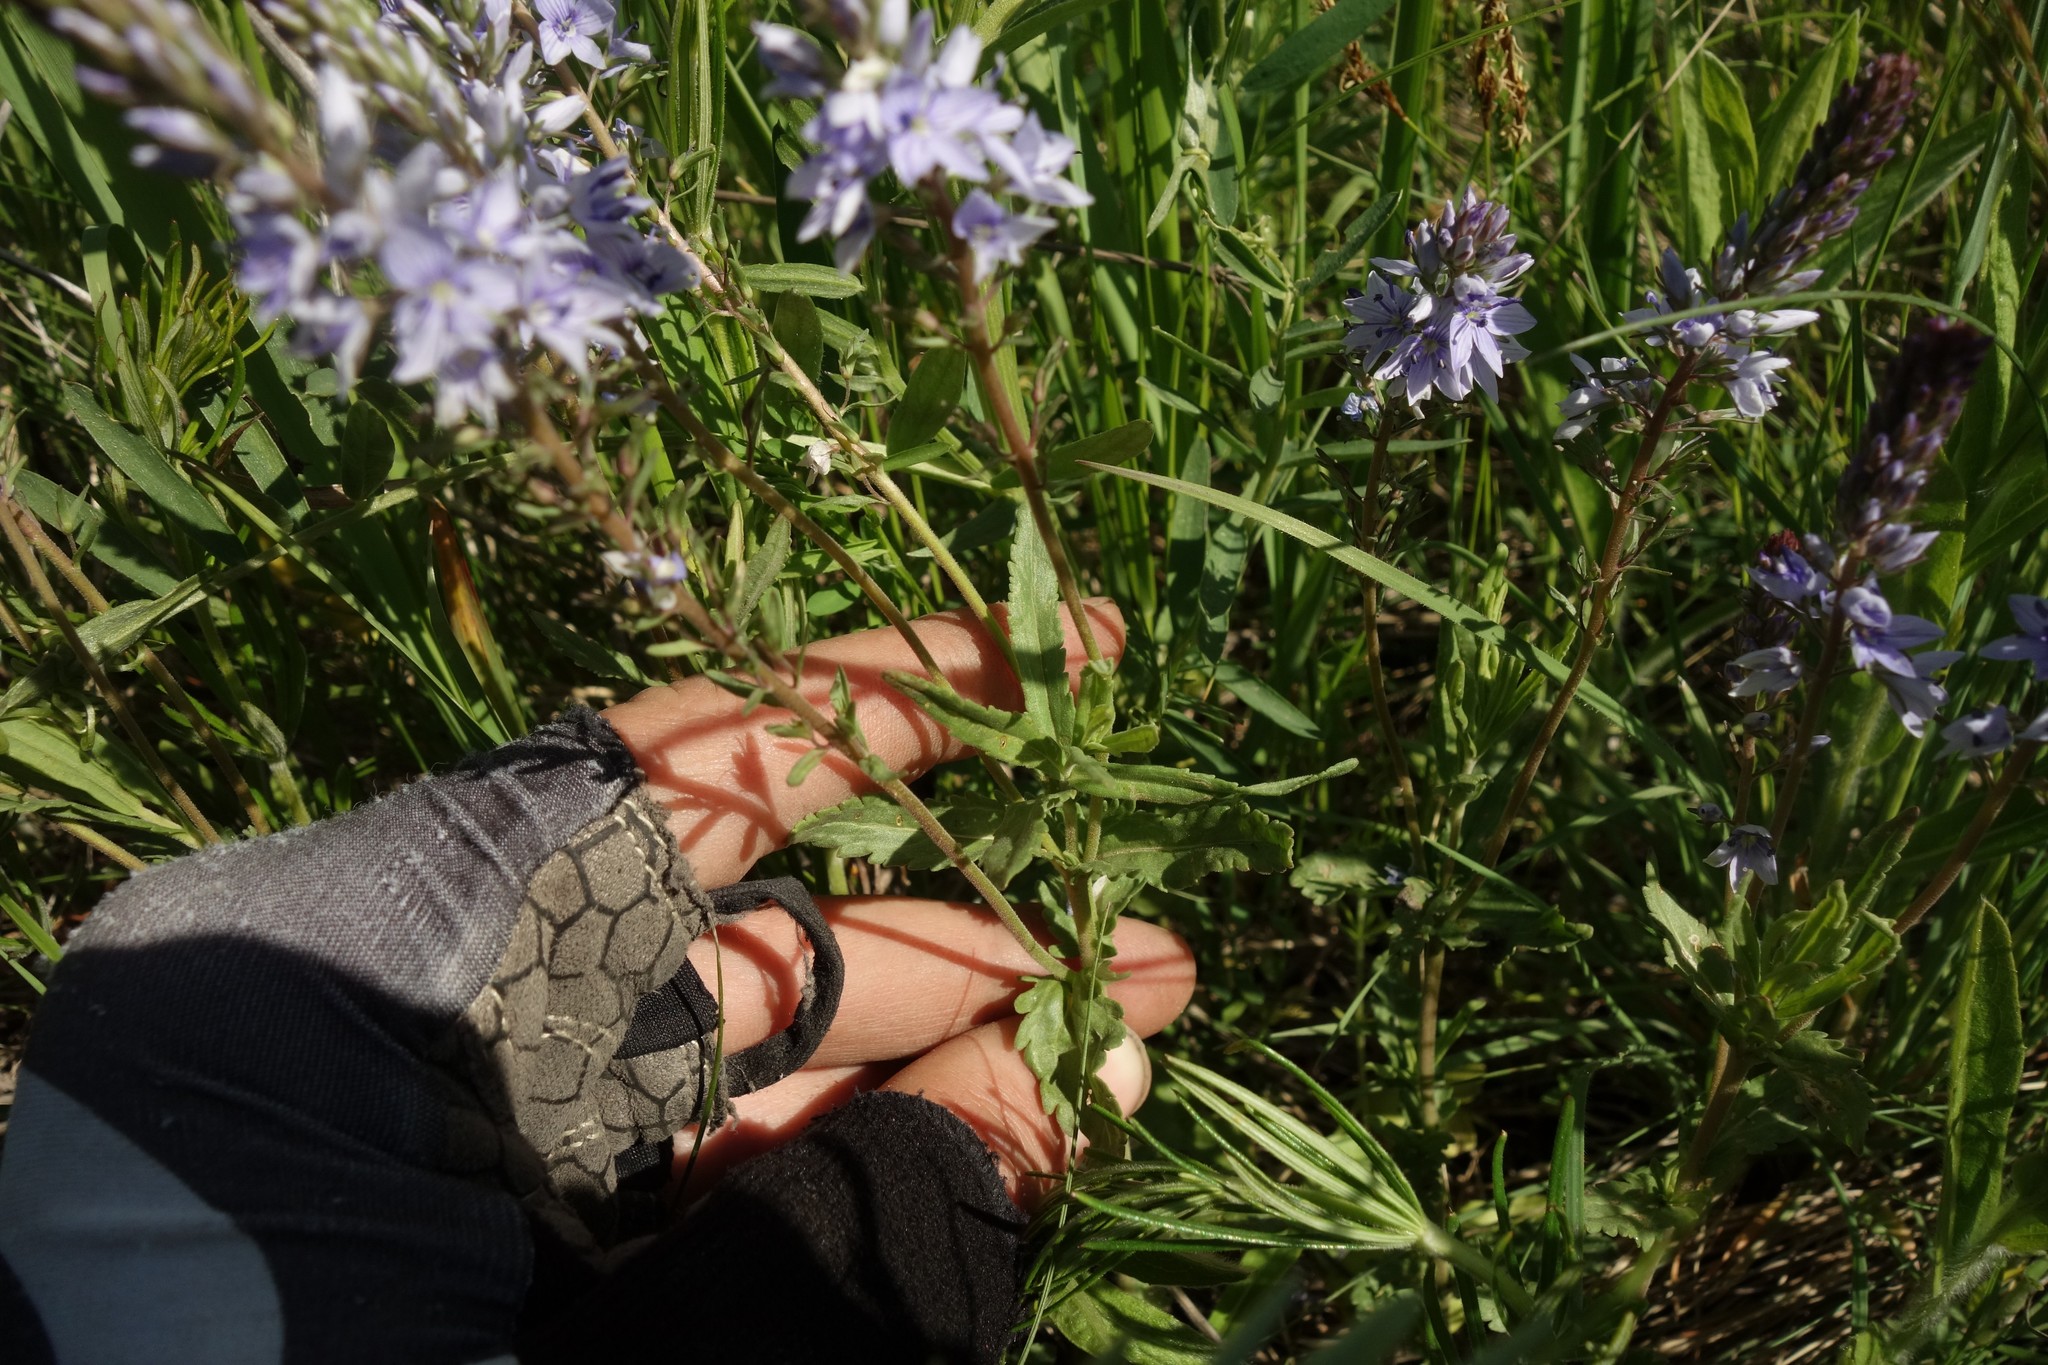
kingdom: Plantae
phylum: Tracheophyta
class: Magnoliopsida
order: Lamiales
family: Plantaginaceae
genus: Veronica
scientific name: Veronica prostrata
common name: Prostrate speedwell
